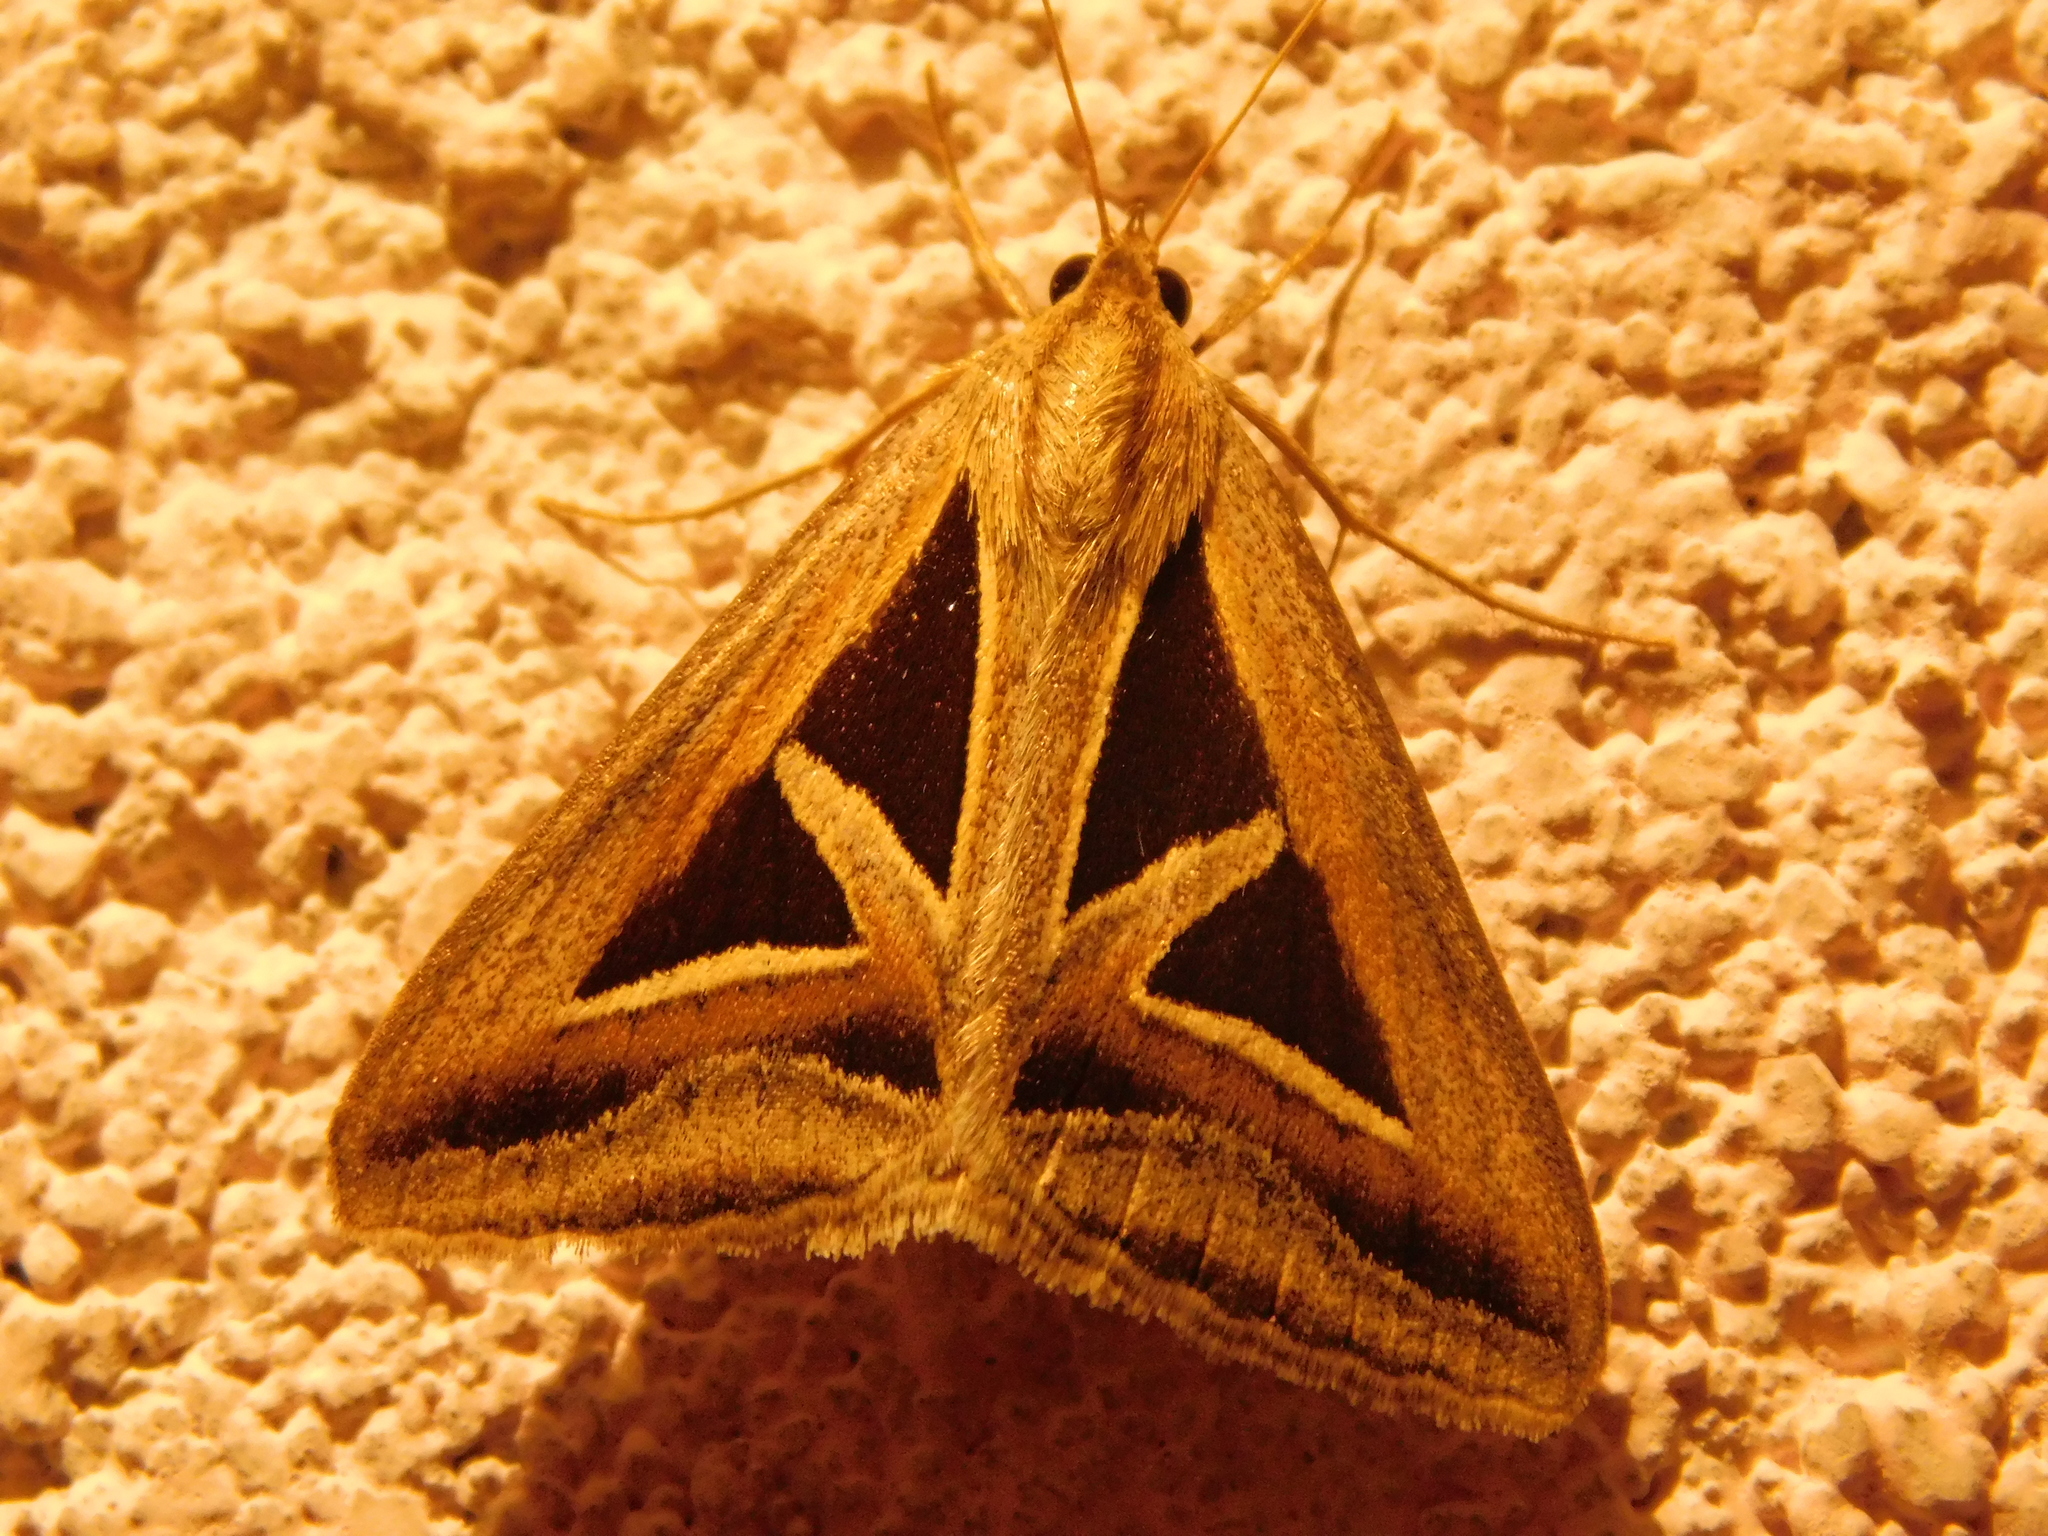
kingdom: Animalia
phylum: Arthropoda
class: Insecta
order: Lepidoptera
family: Erebidae
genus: Trigonodes
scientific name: Trigonodes hyppasia
